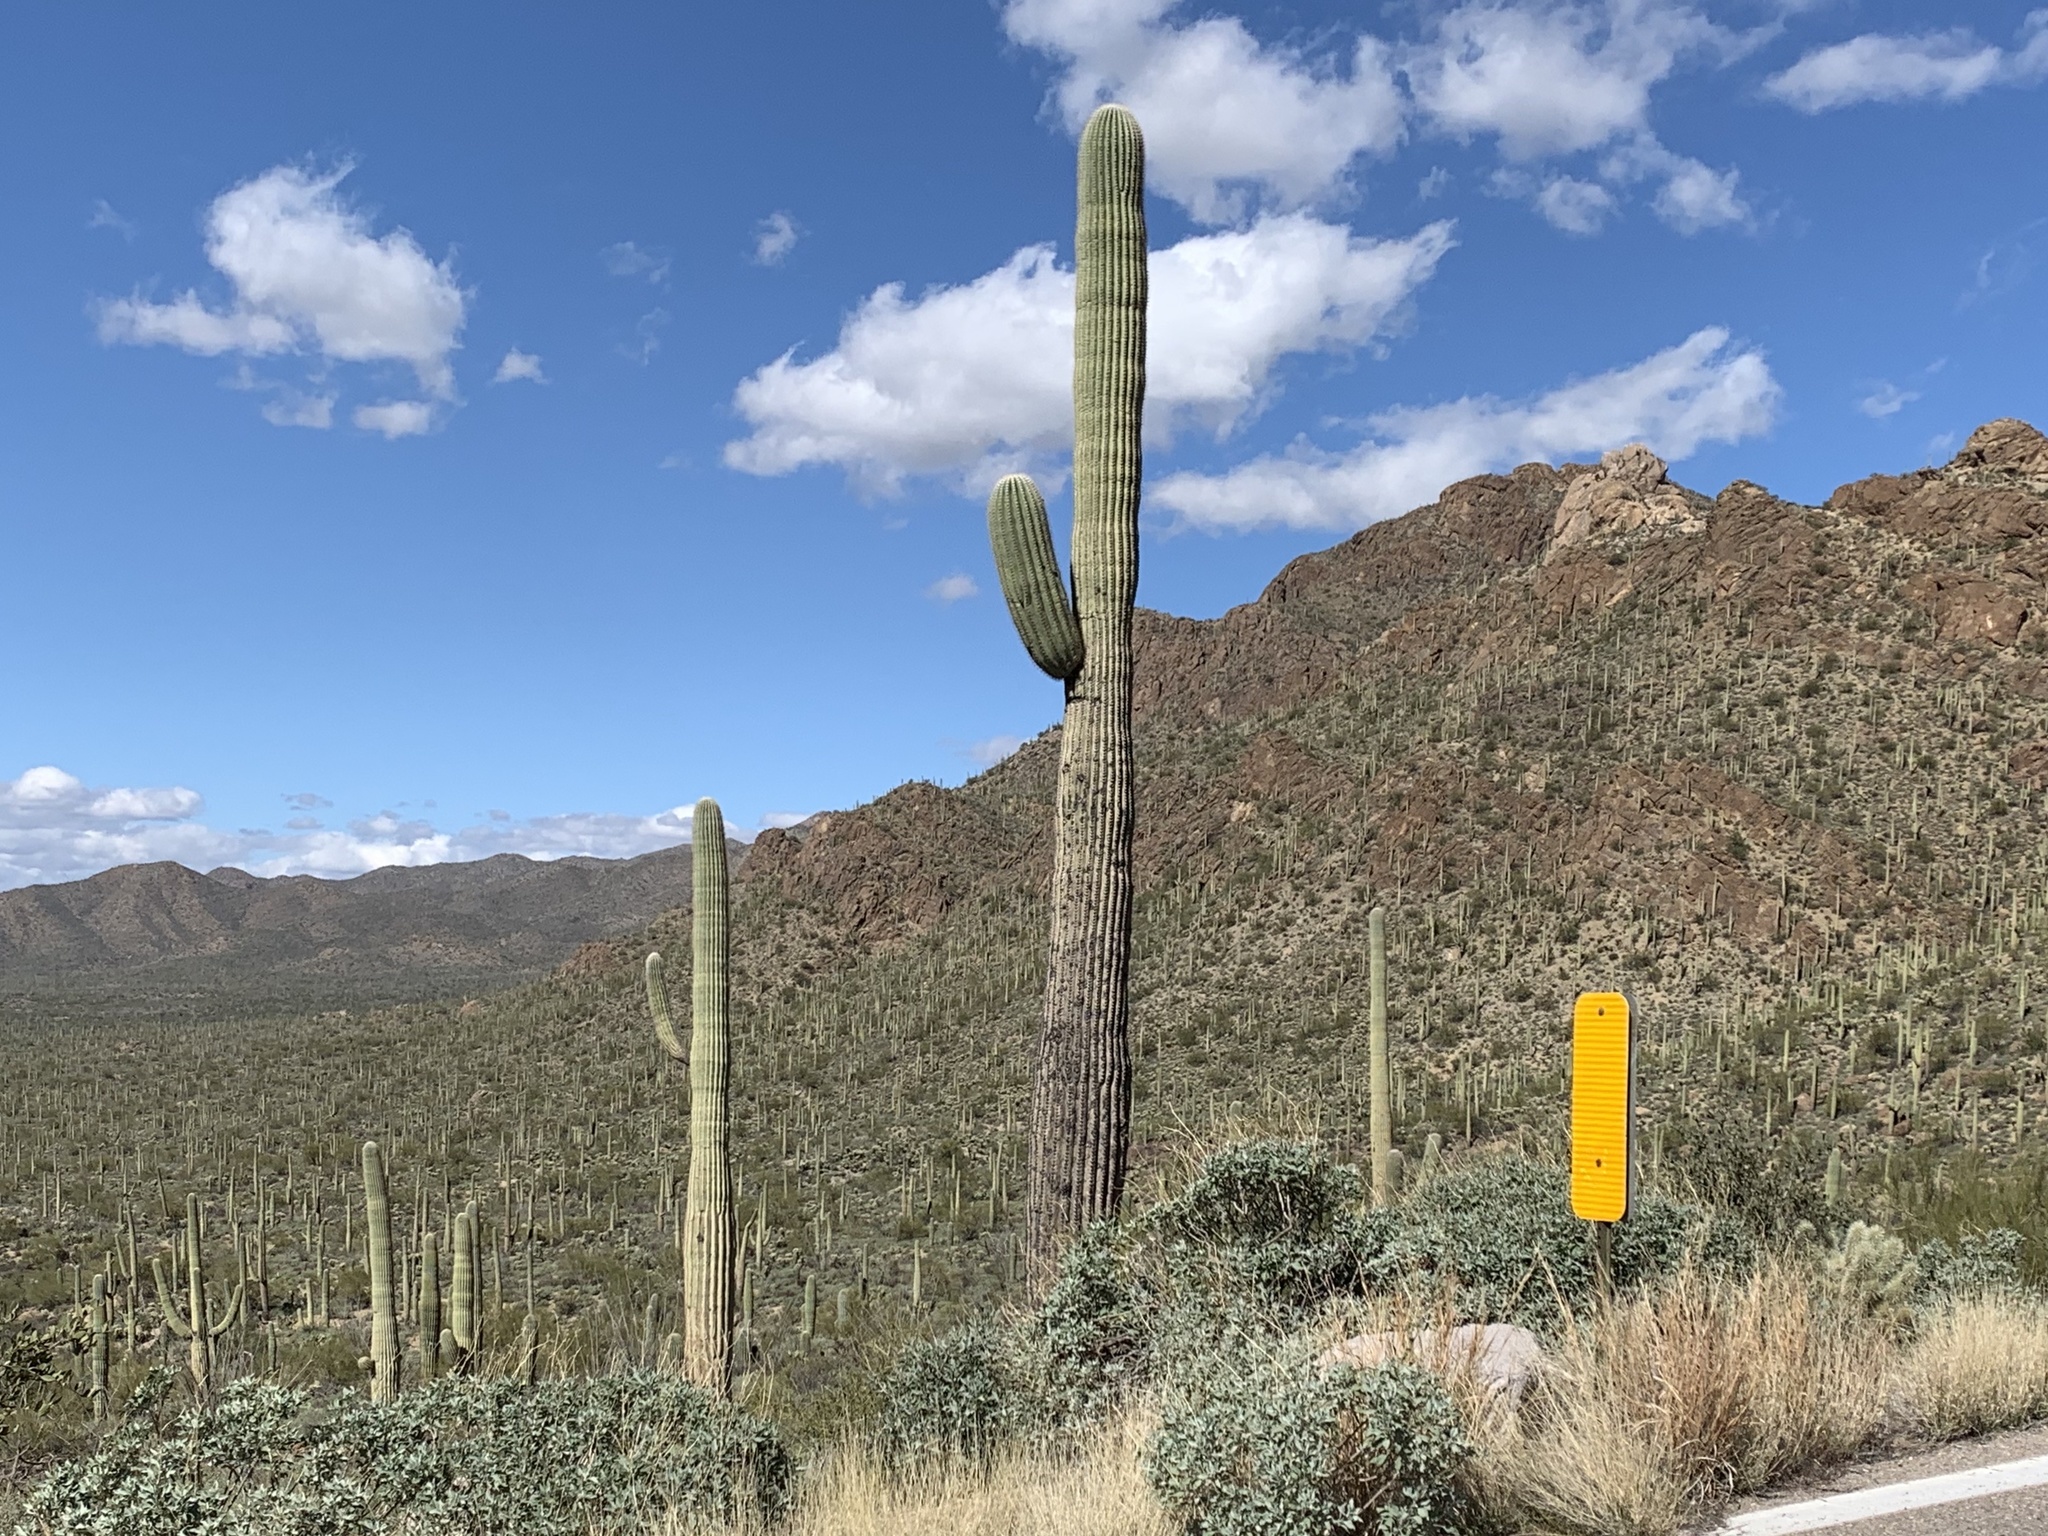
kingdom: Plantae
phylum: Tracheophyta
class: Magnoliopsida
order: Caryophyllales
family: Cactaceae
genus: Carnegiea
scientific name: Carnegiea gigantea
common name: Saguaro
